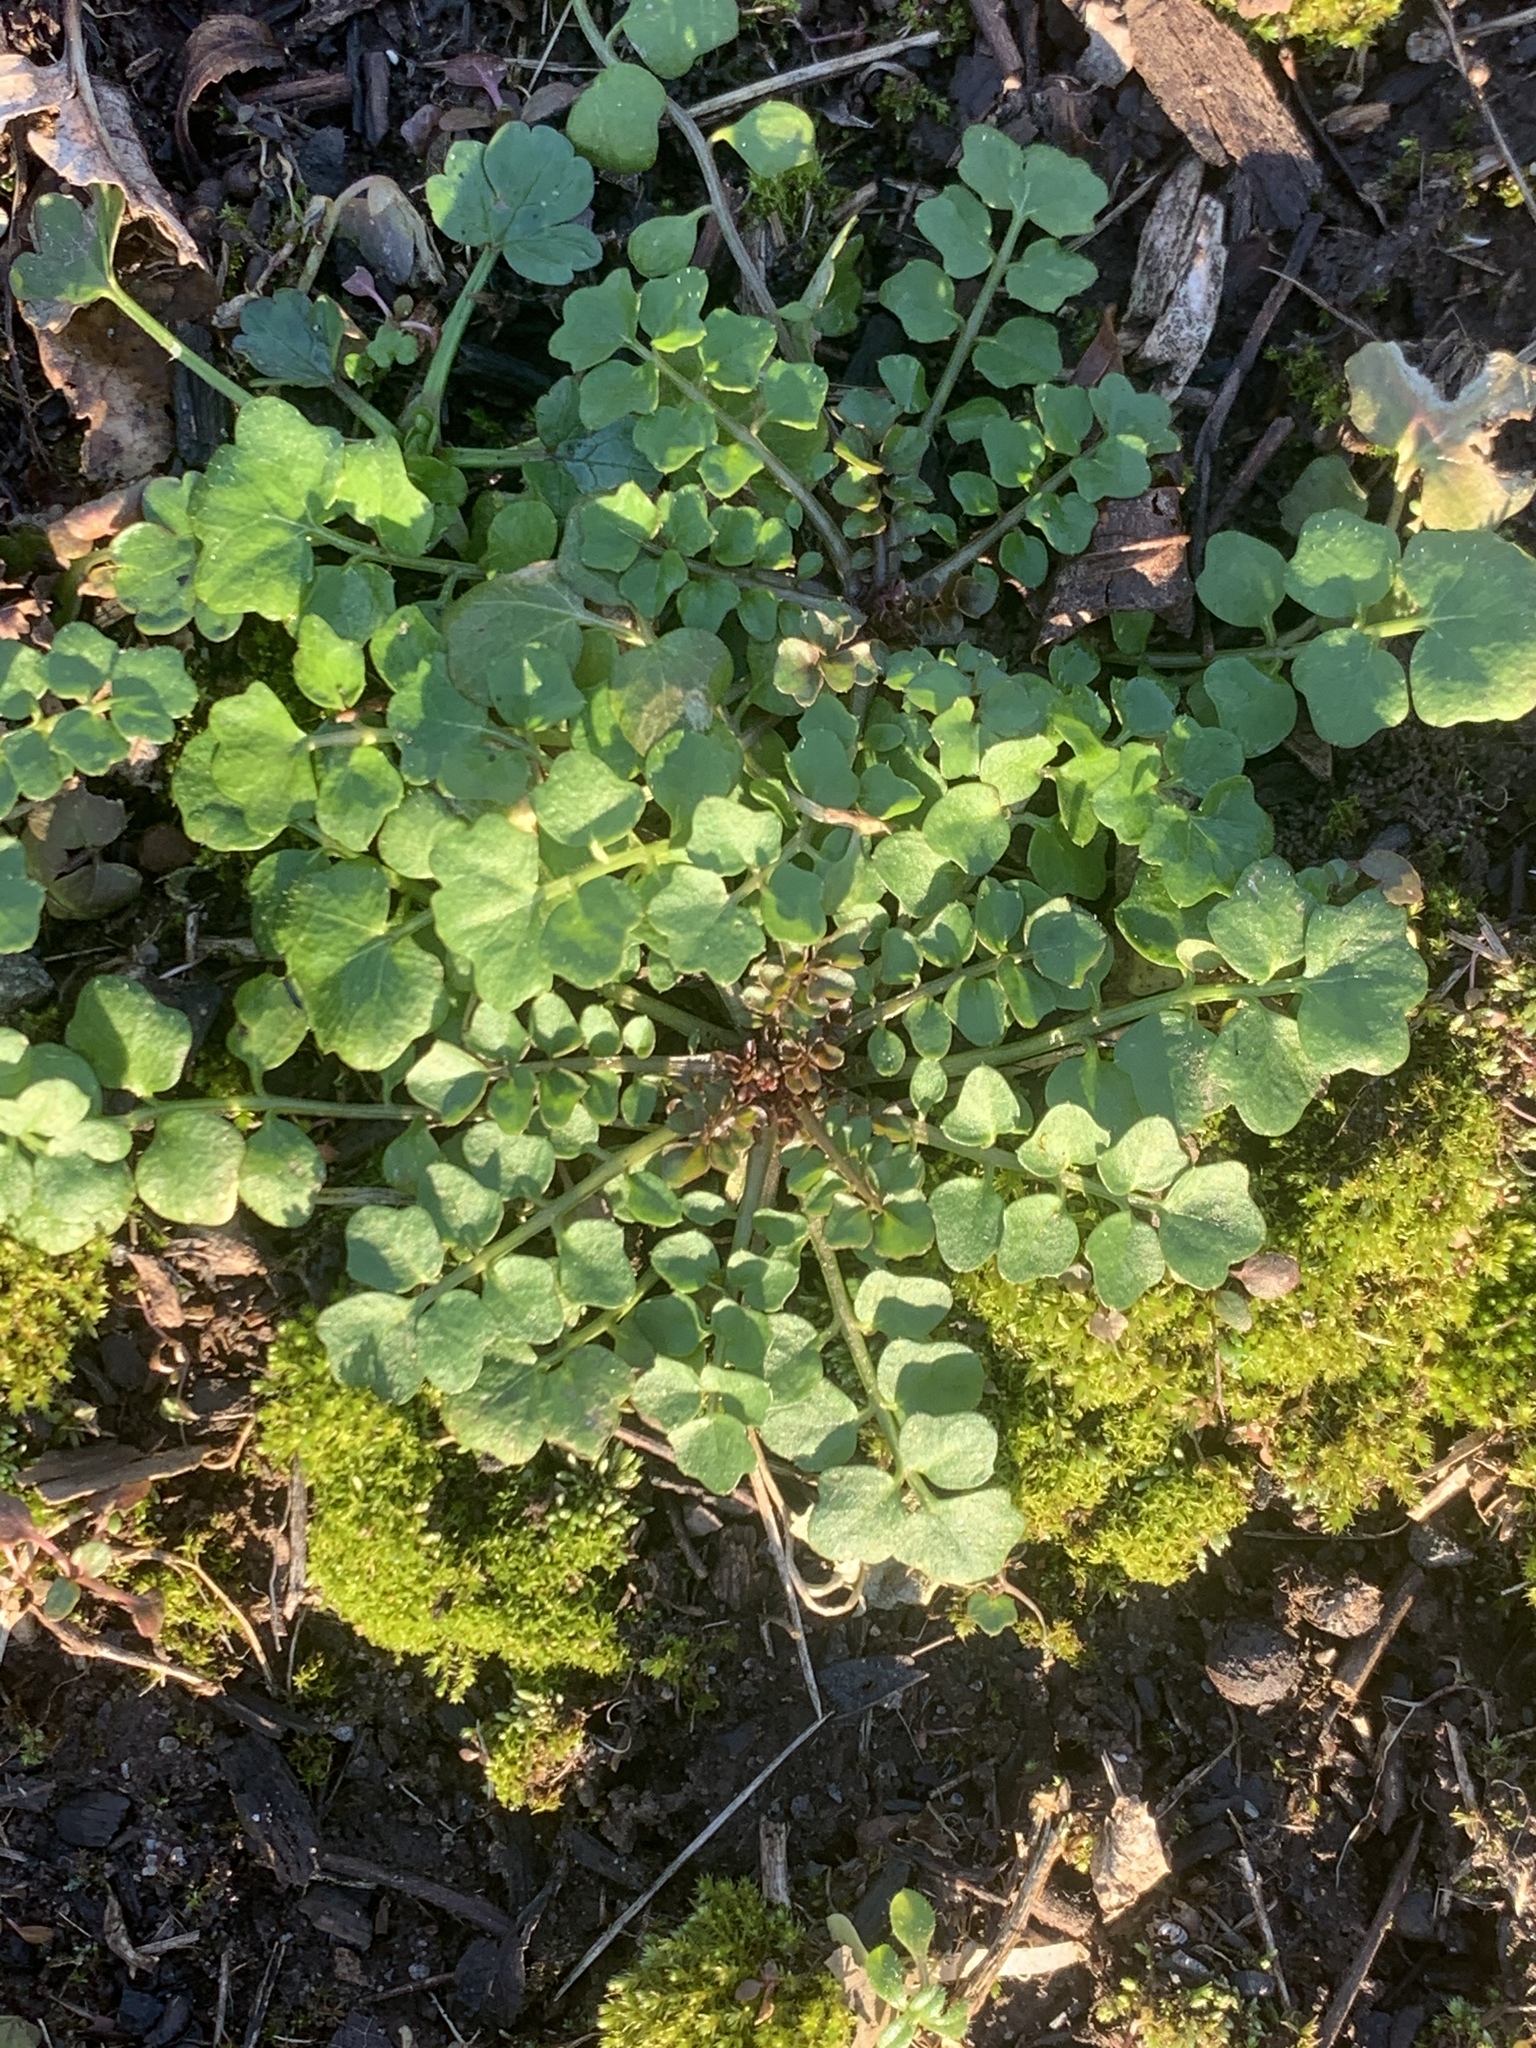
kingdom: Plantae
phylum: Tracheophyta
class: Magnoliopsida
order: Brassicales
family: Brassicaceae
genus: Cardamine
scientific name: Cardamine hirsuta
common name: Hairy bittercress
